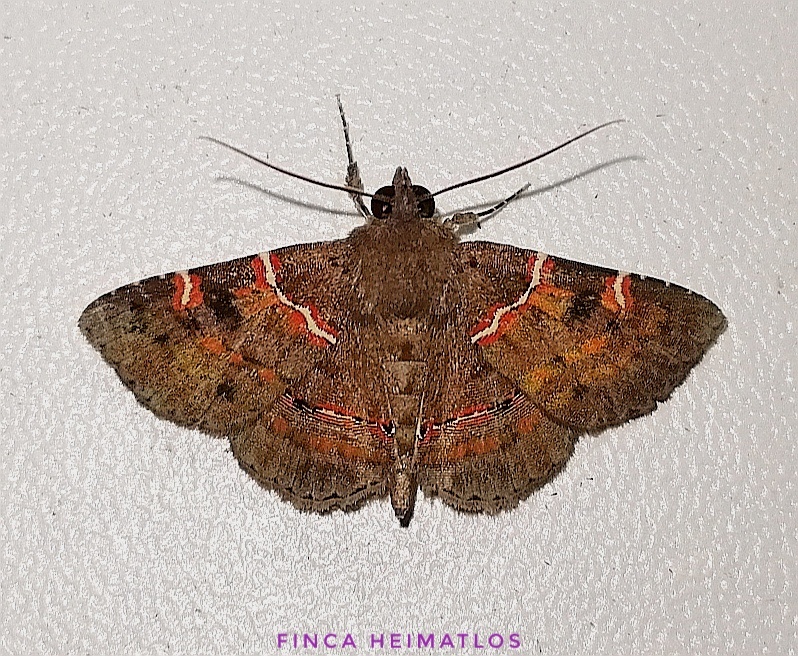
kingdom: Animalia
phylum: Arthropoda
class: Insecta
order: Lepidoptera
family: Erebidae
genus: Antiblemma
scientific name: Antiblemma rubida
